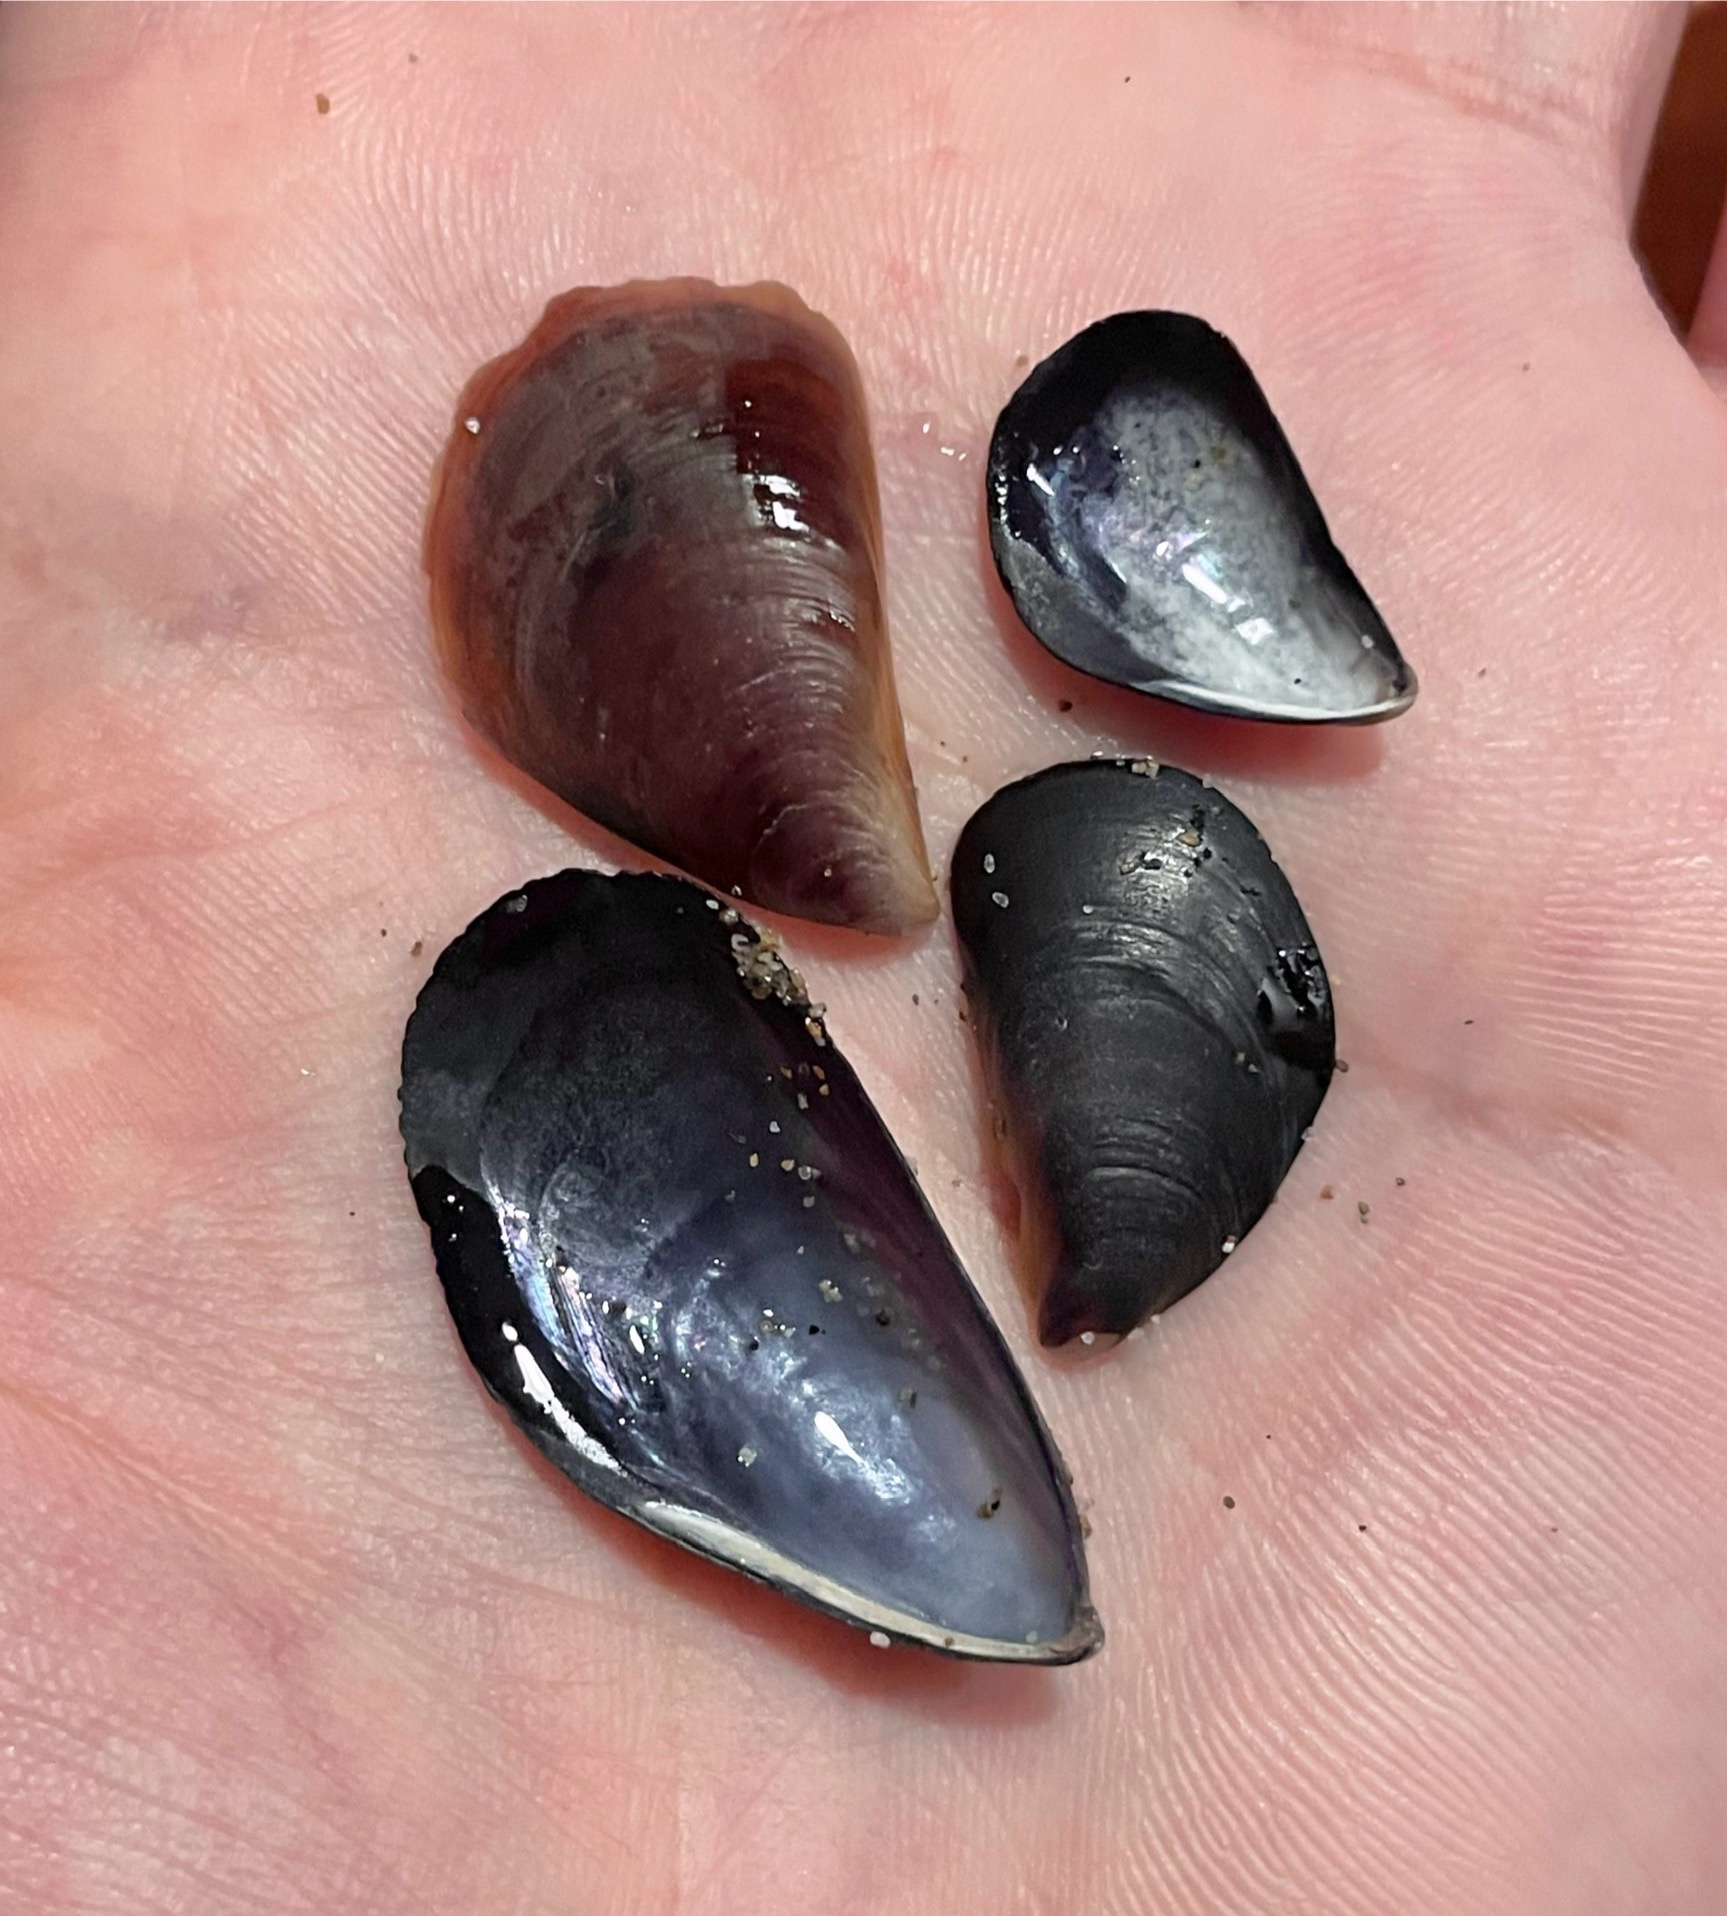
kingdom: Animalia
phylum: Mollusca
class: Bivalvia
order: Mytilida
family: Mytilidae
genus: Mytilus
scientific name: Mytilus galloprovincialis
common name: Mediterranean mussel
